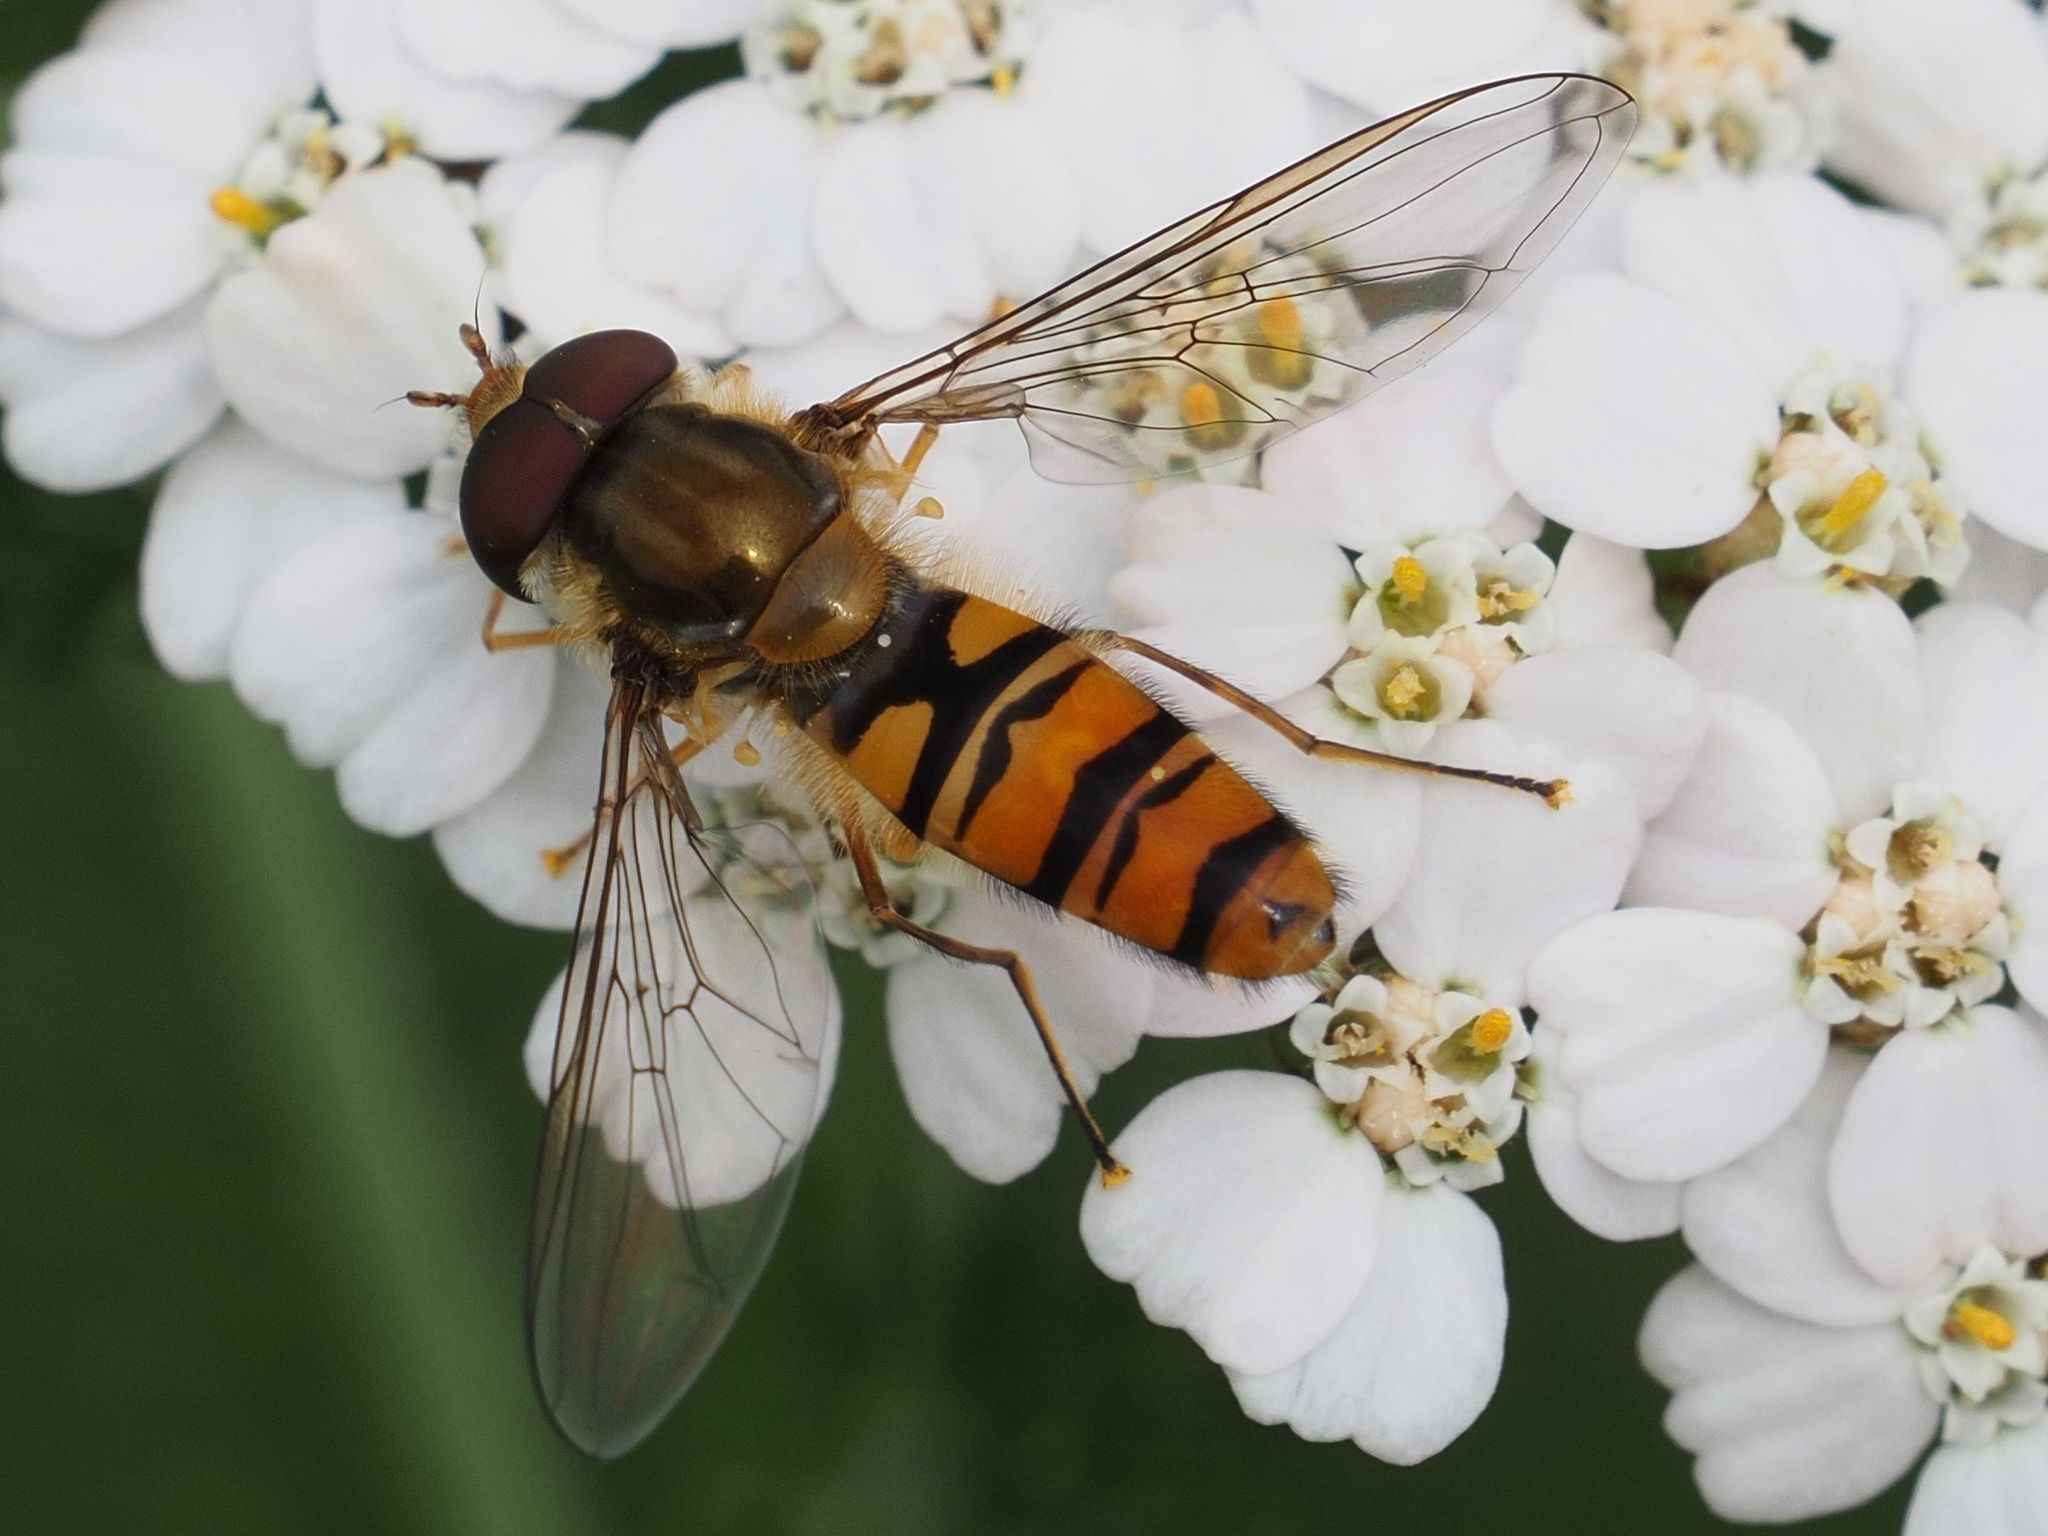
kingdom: Animalia
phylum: Arthropoda
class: Insecta
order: Diptera
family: Syrphidae
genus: Episyrphus
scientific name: Episyrphus balteatus
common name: Marmalade hoverfly
